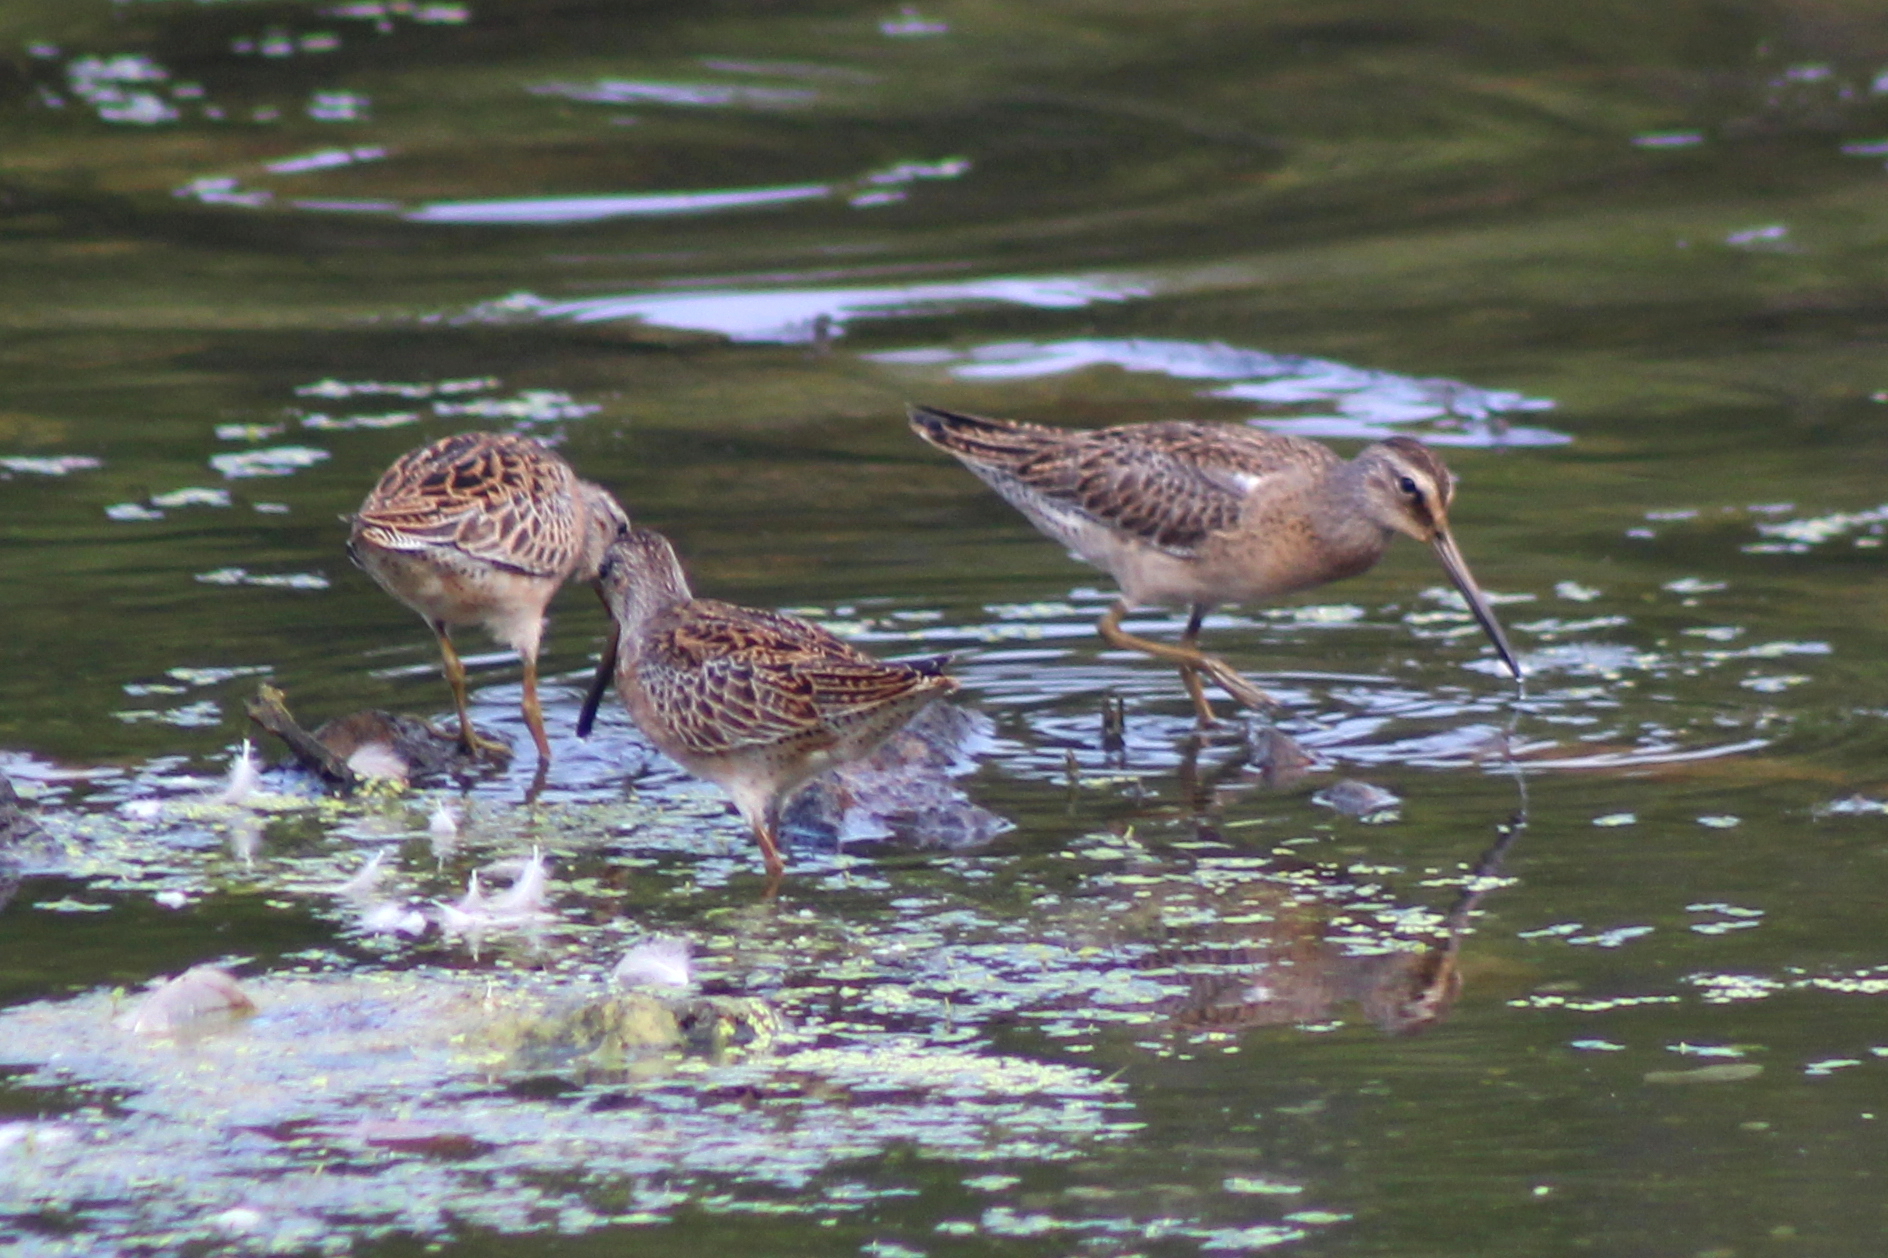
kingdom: Animalia
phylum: Chordata
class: Aves
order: Charadriiformes
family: Scolopacidae
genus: Limnodromus
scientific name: Limnodromus griseus
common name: Short-billed dowitcher
